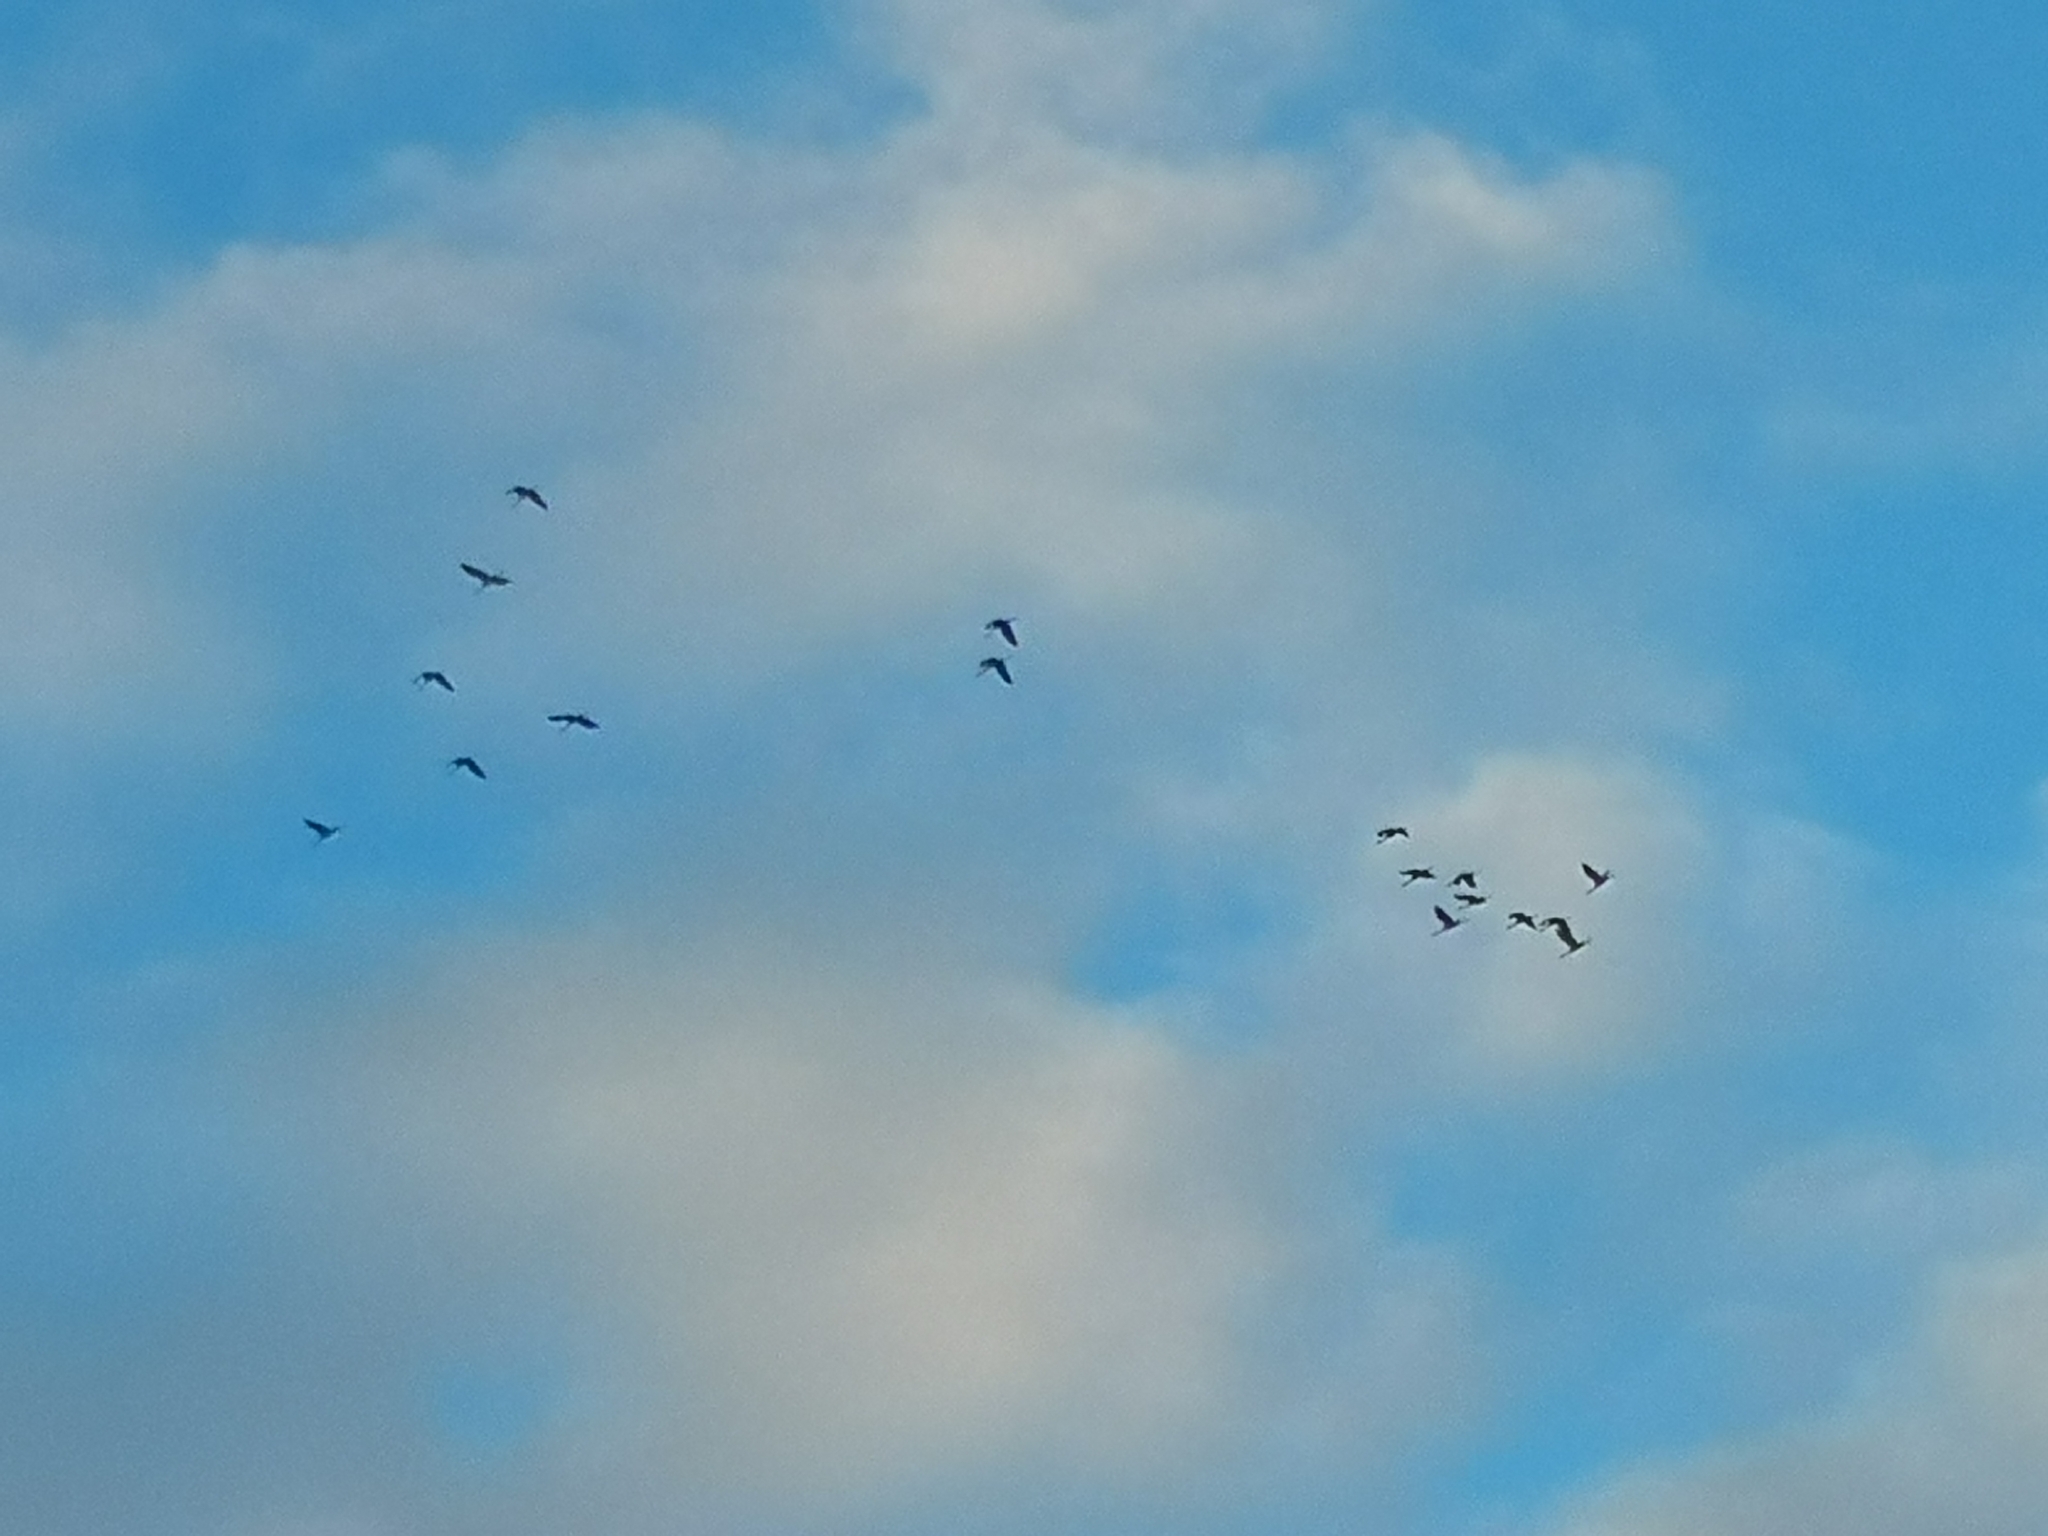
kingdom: Animalia
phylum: Chordata
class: Aves
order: Gruiformes
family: Gruidae
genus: Grus
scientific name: Grus grus
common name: Common crane
